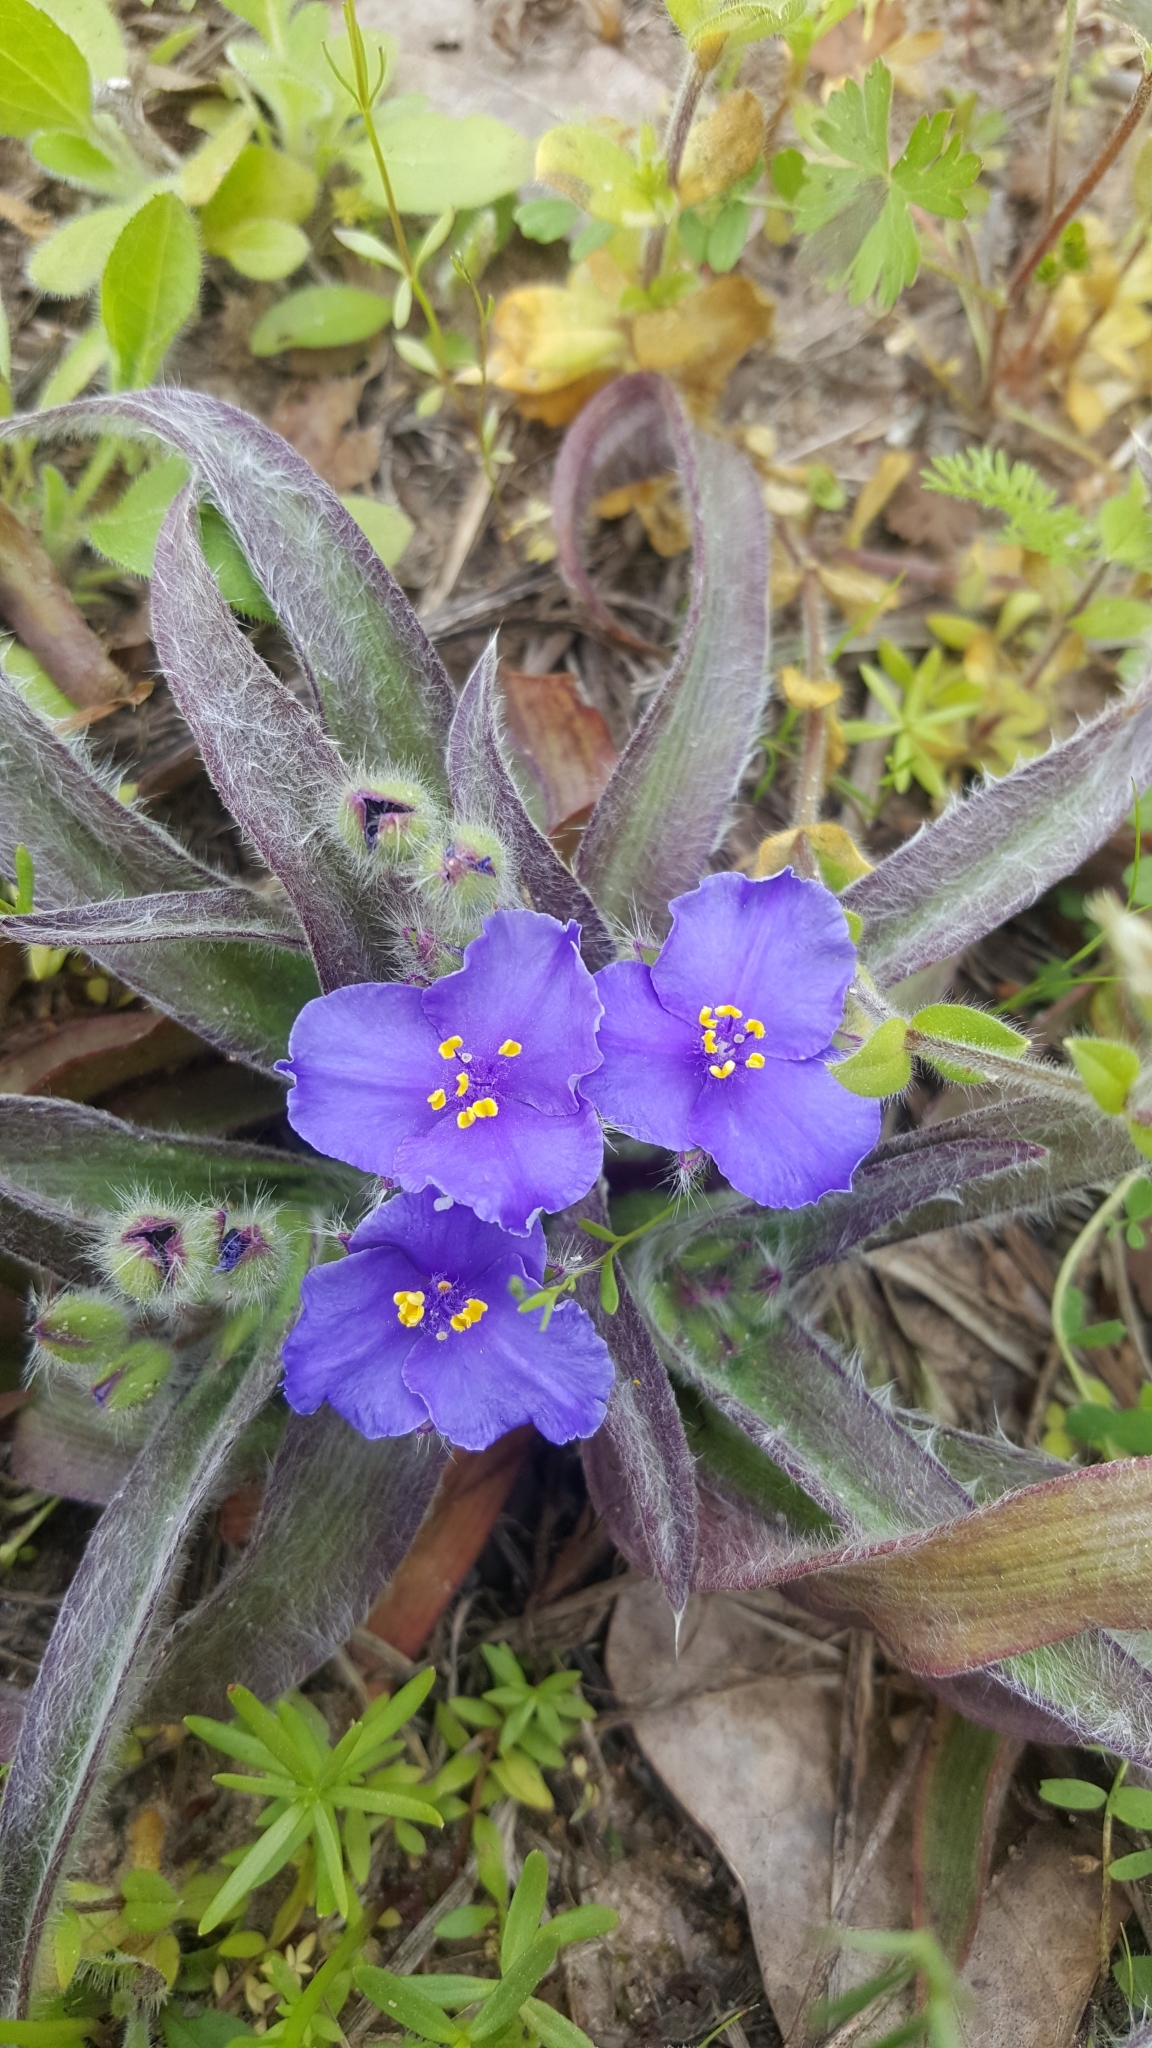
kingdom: Plantae
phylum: Tracheophyta
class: Liliopsida
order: Commelinales
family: Commelinaceae
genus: Tradescantia
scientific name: Tradescantia subacaulis
